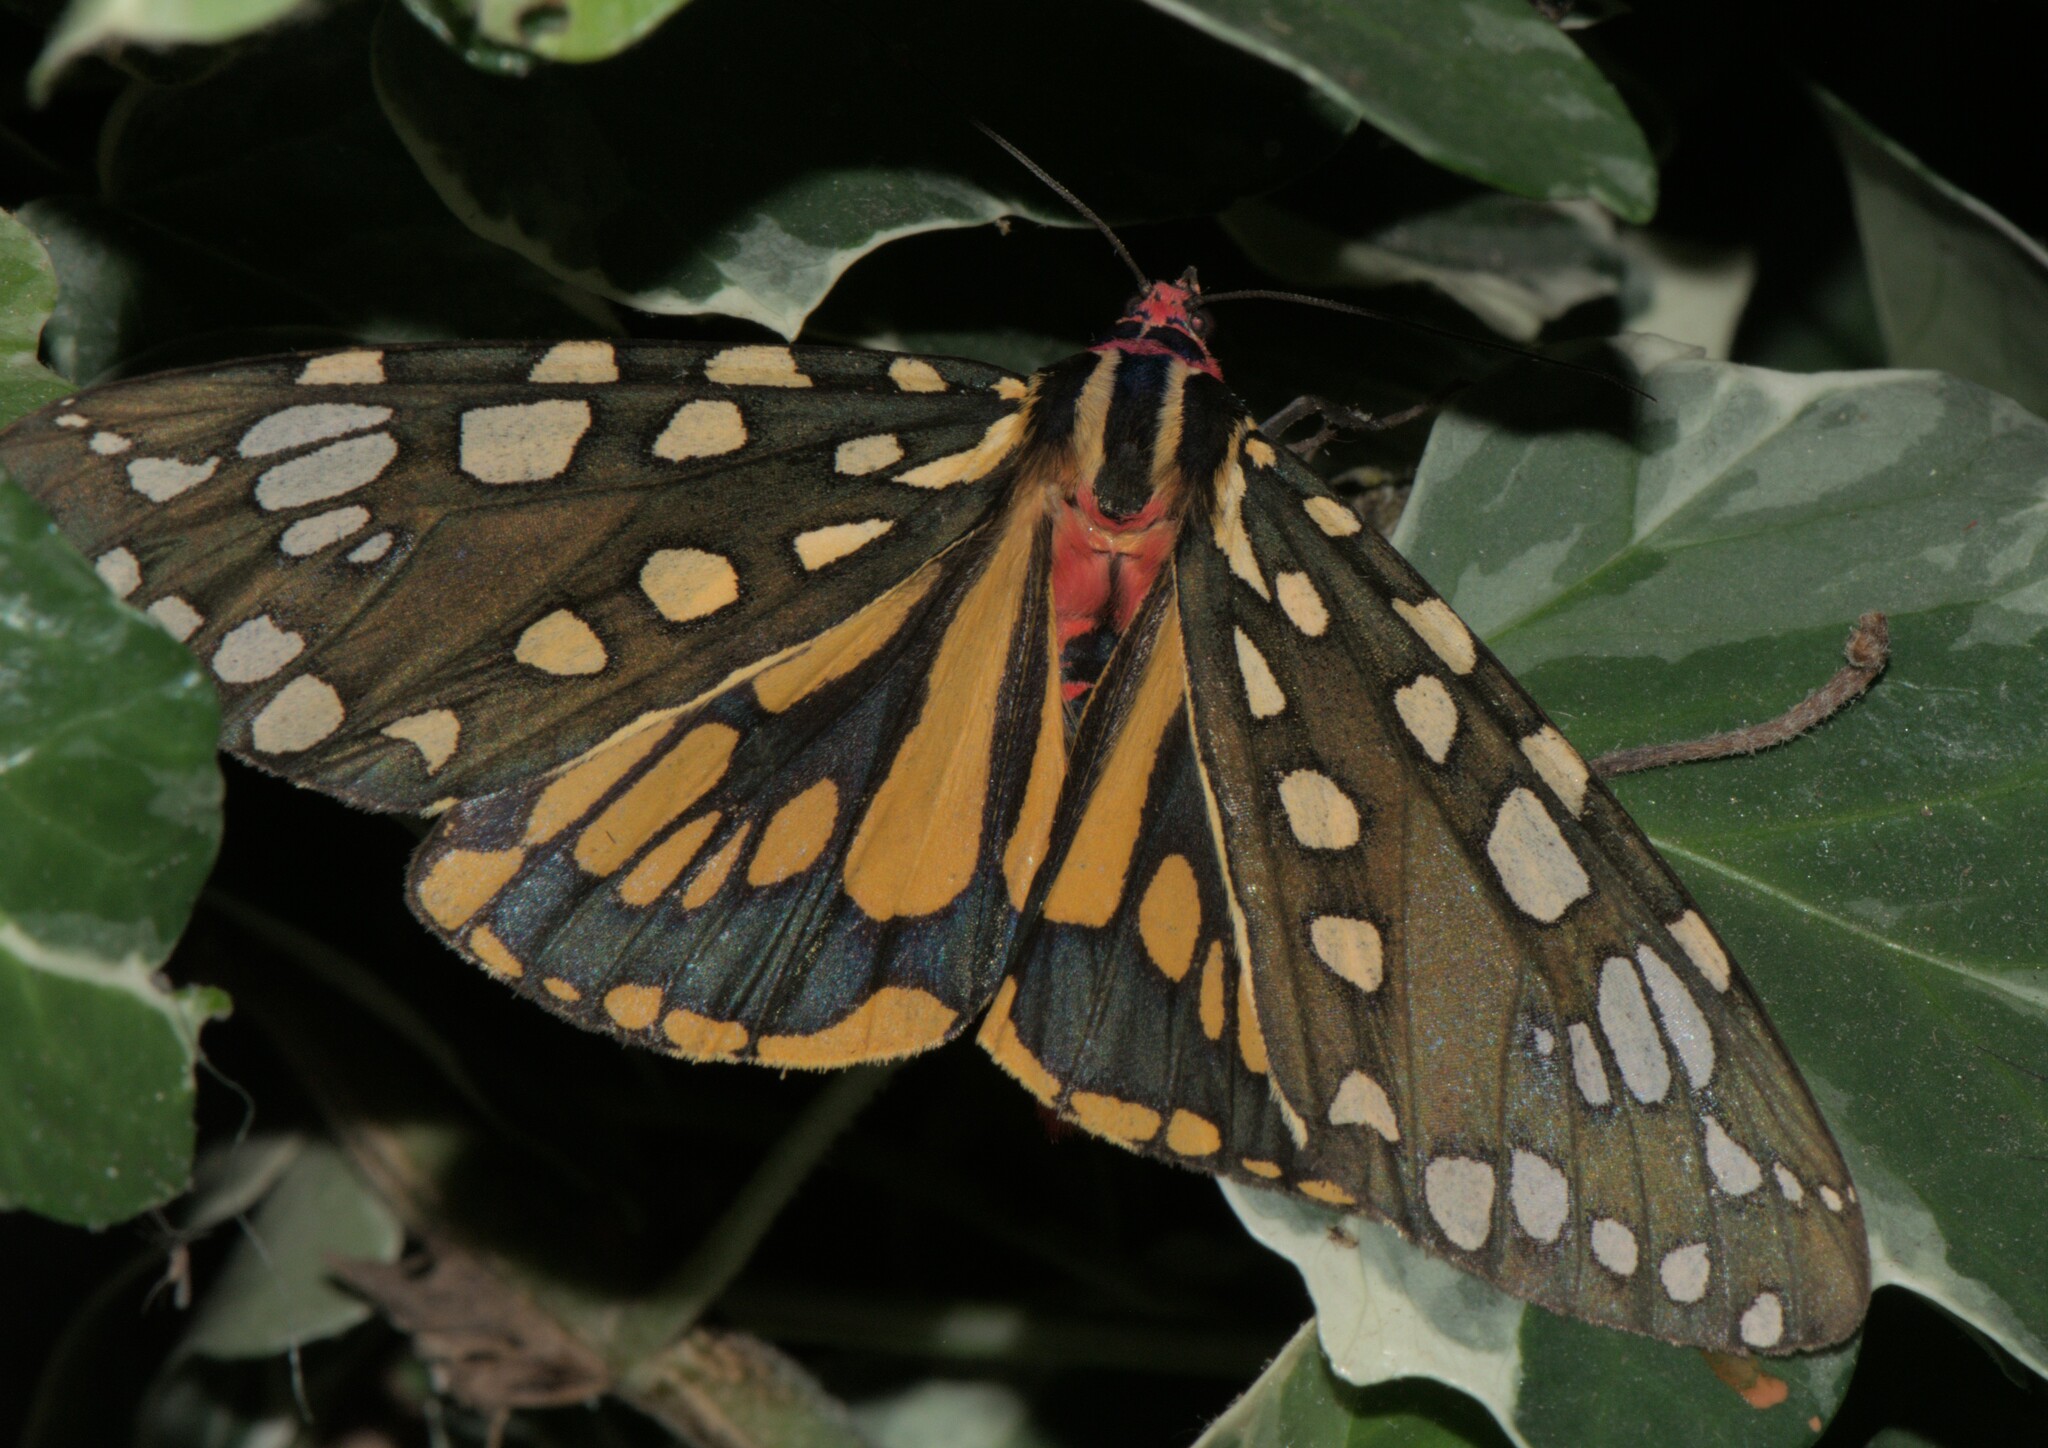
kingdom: Animalia
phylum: Arthropoda
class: Insecta
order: Lepidoptera
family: Erebidae
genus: Callindra
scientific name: Callindra principalis
